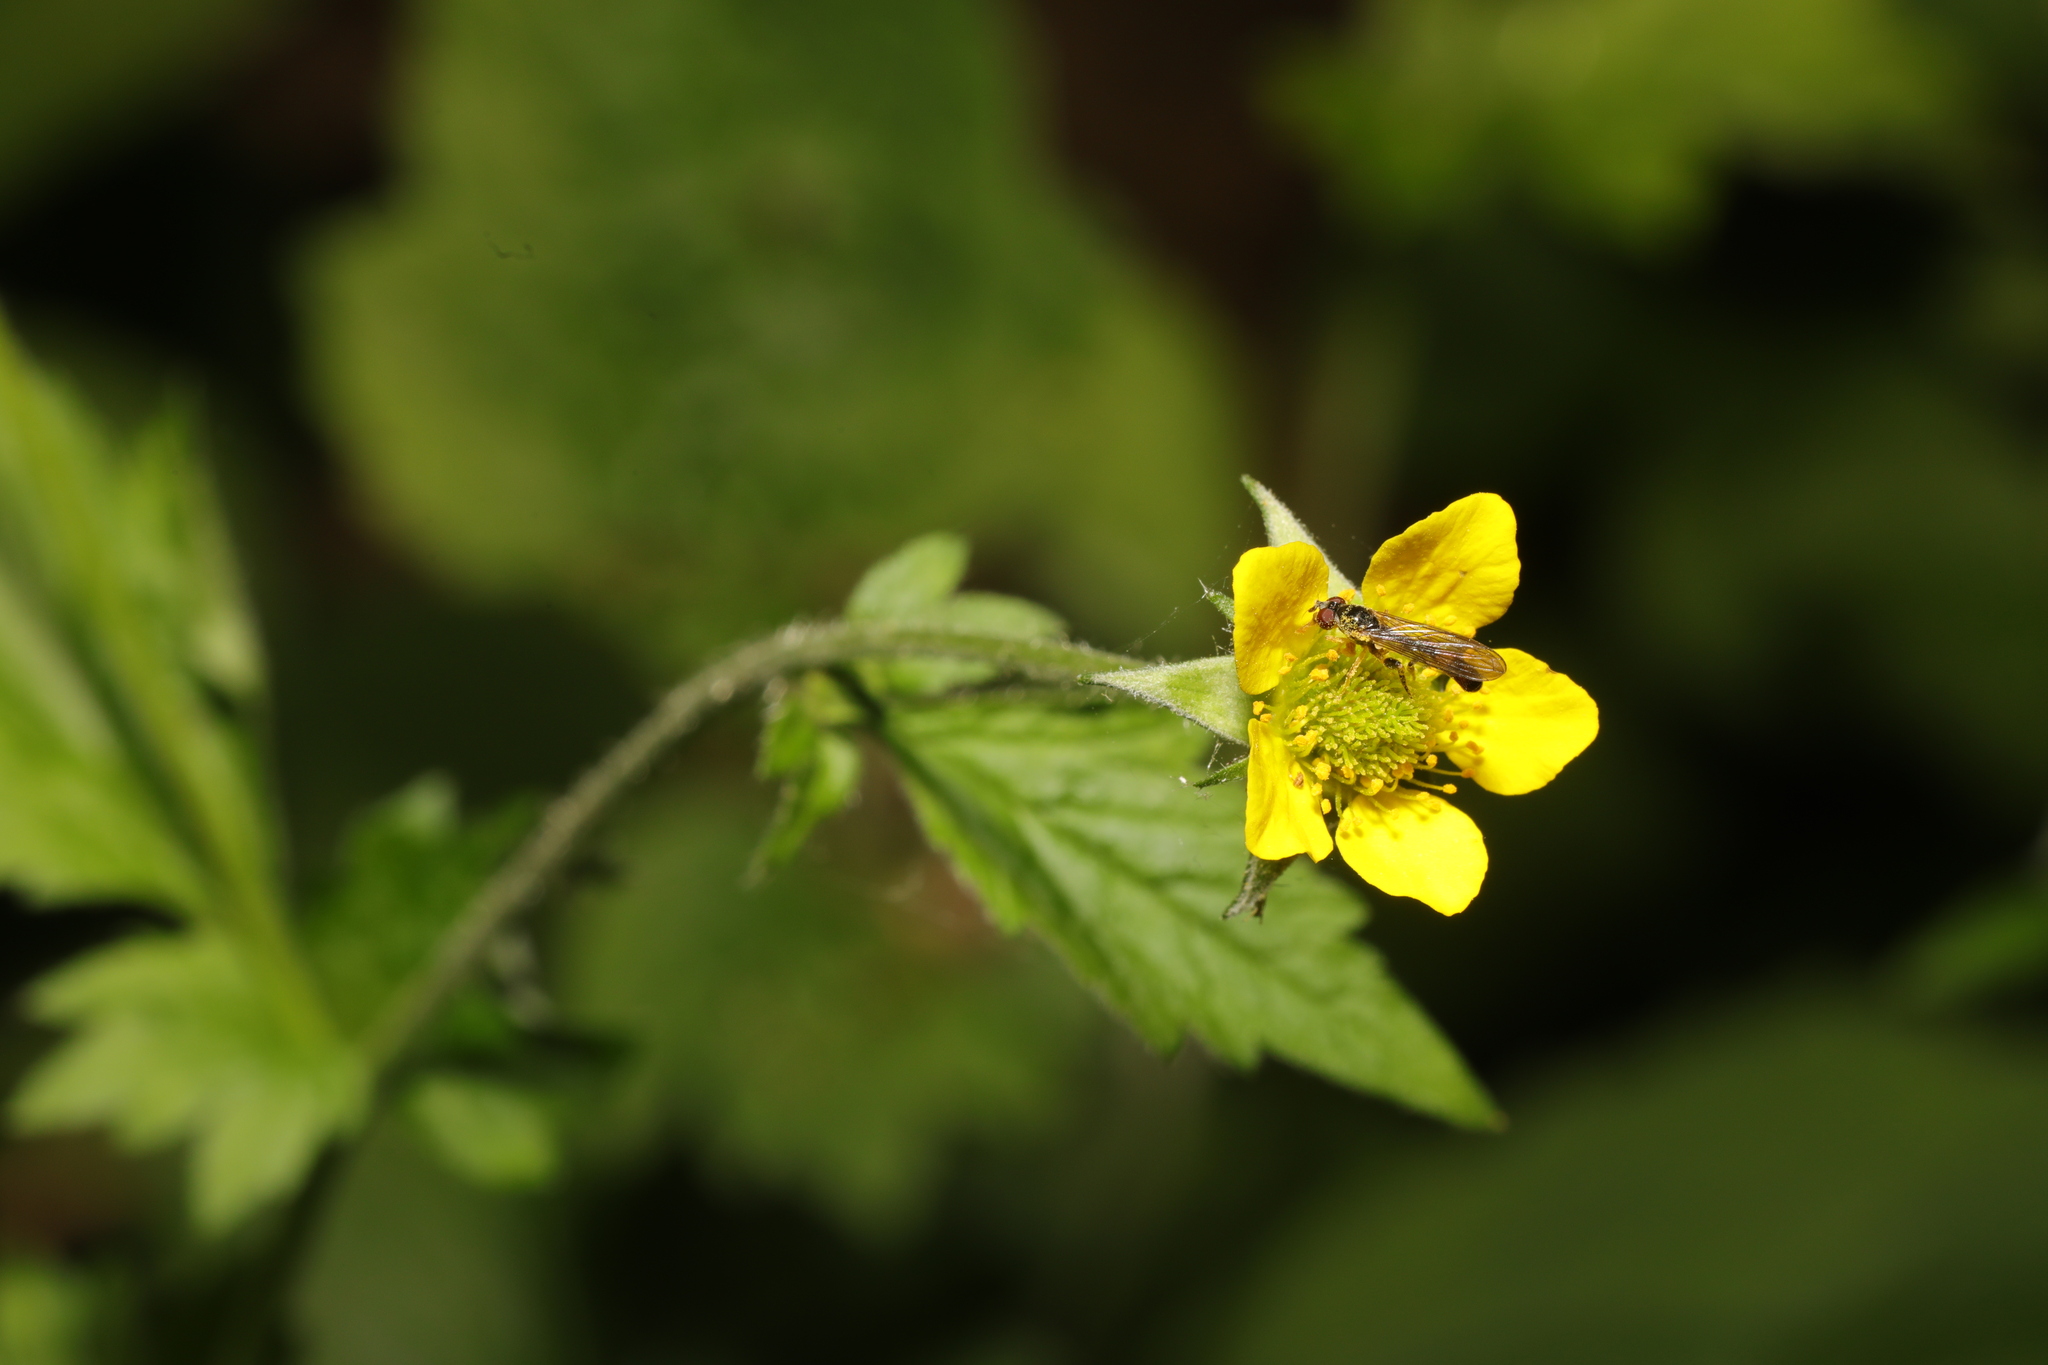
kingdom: Plantae
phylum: Tracheophyta
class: Magnoliopsida
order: Rosales
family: Rosaceae
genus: Geum
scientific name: Geum urbanum
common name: Wood avens
